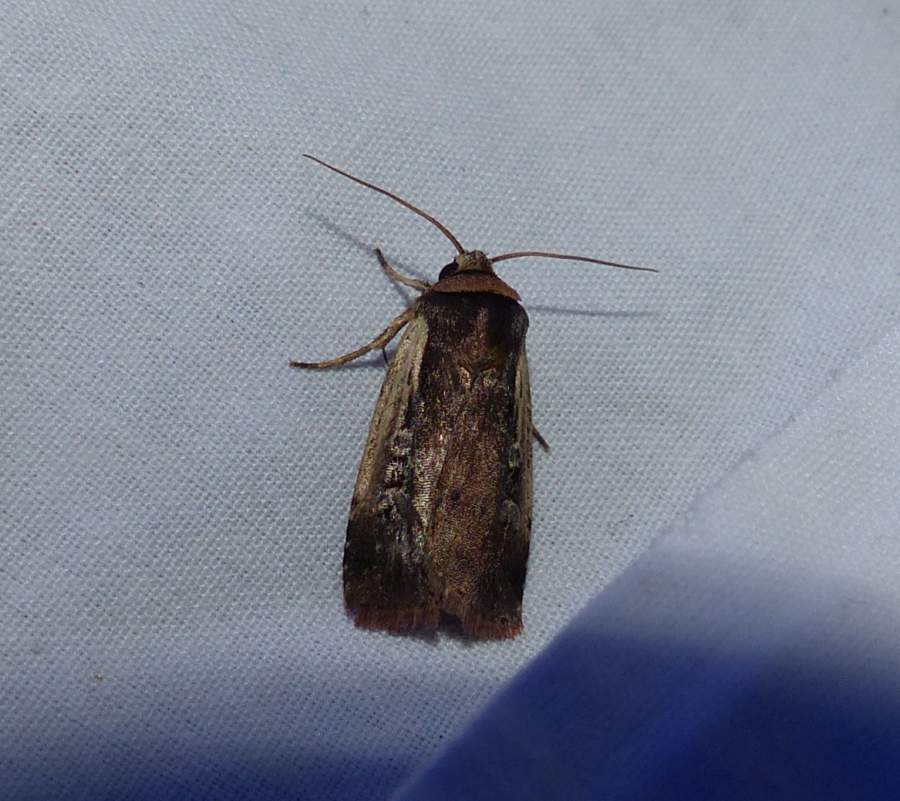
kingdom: Animalia
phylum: Arthropoda
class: Insecta
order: Lepidoptera
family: Noctuidae
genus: Ochropleura
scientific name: Ochropleura implecta
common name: Flame-shouldered dart
